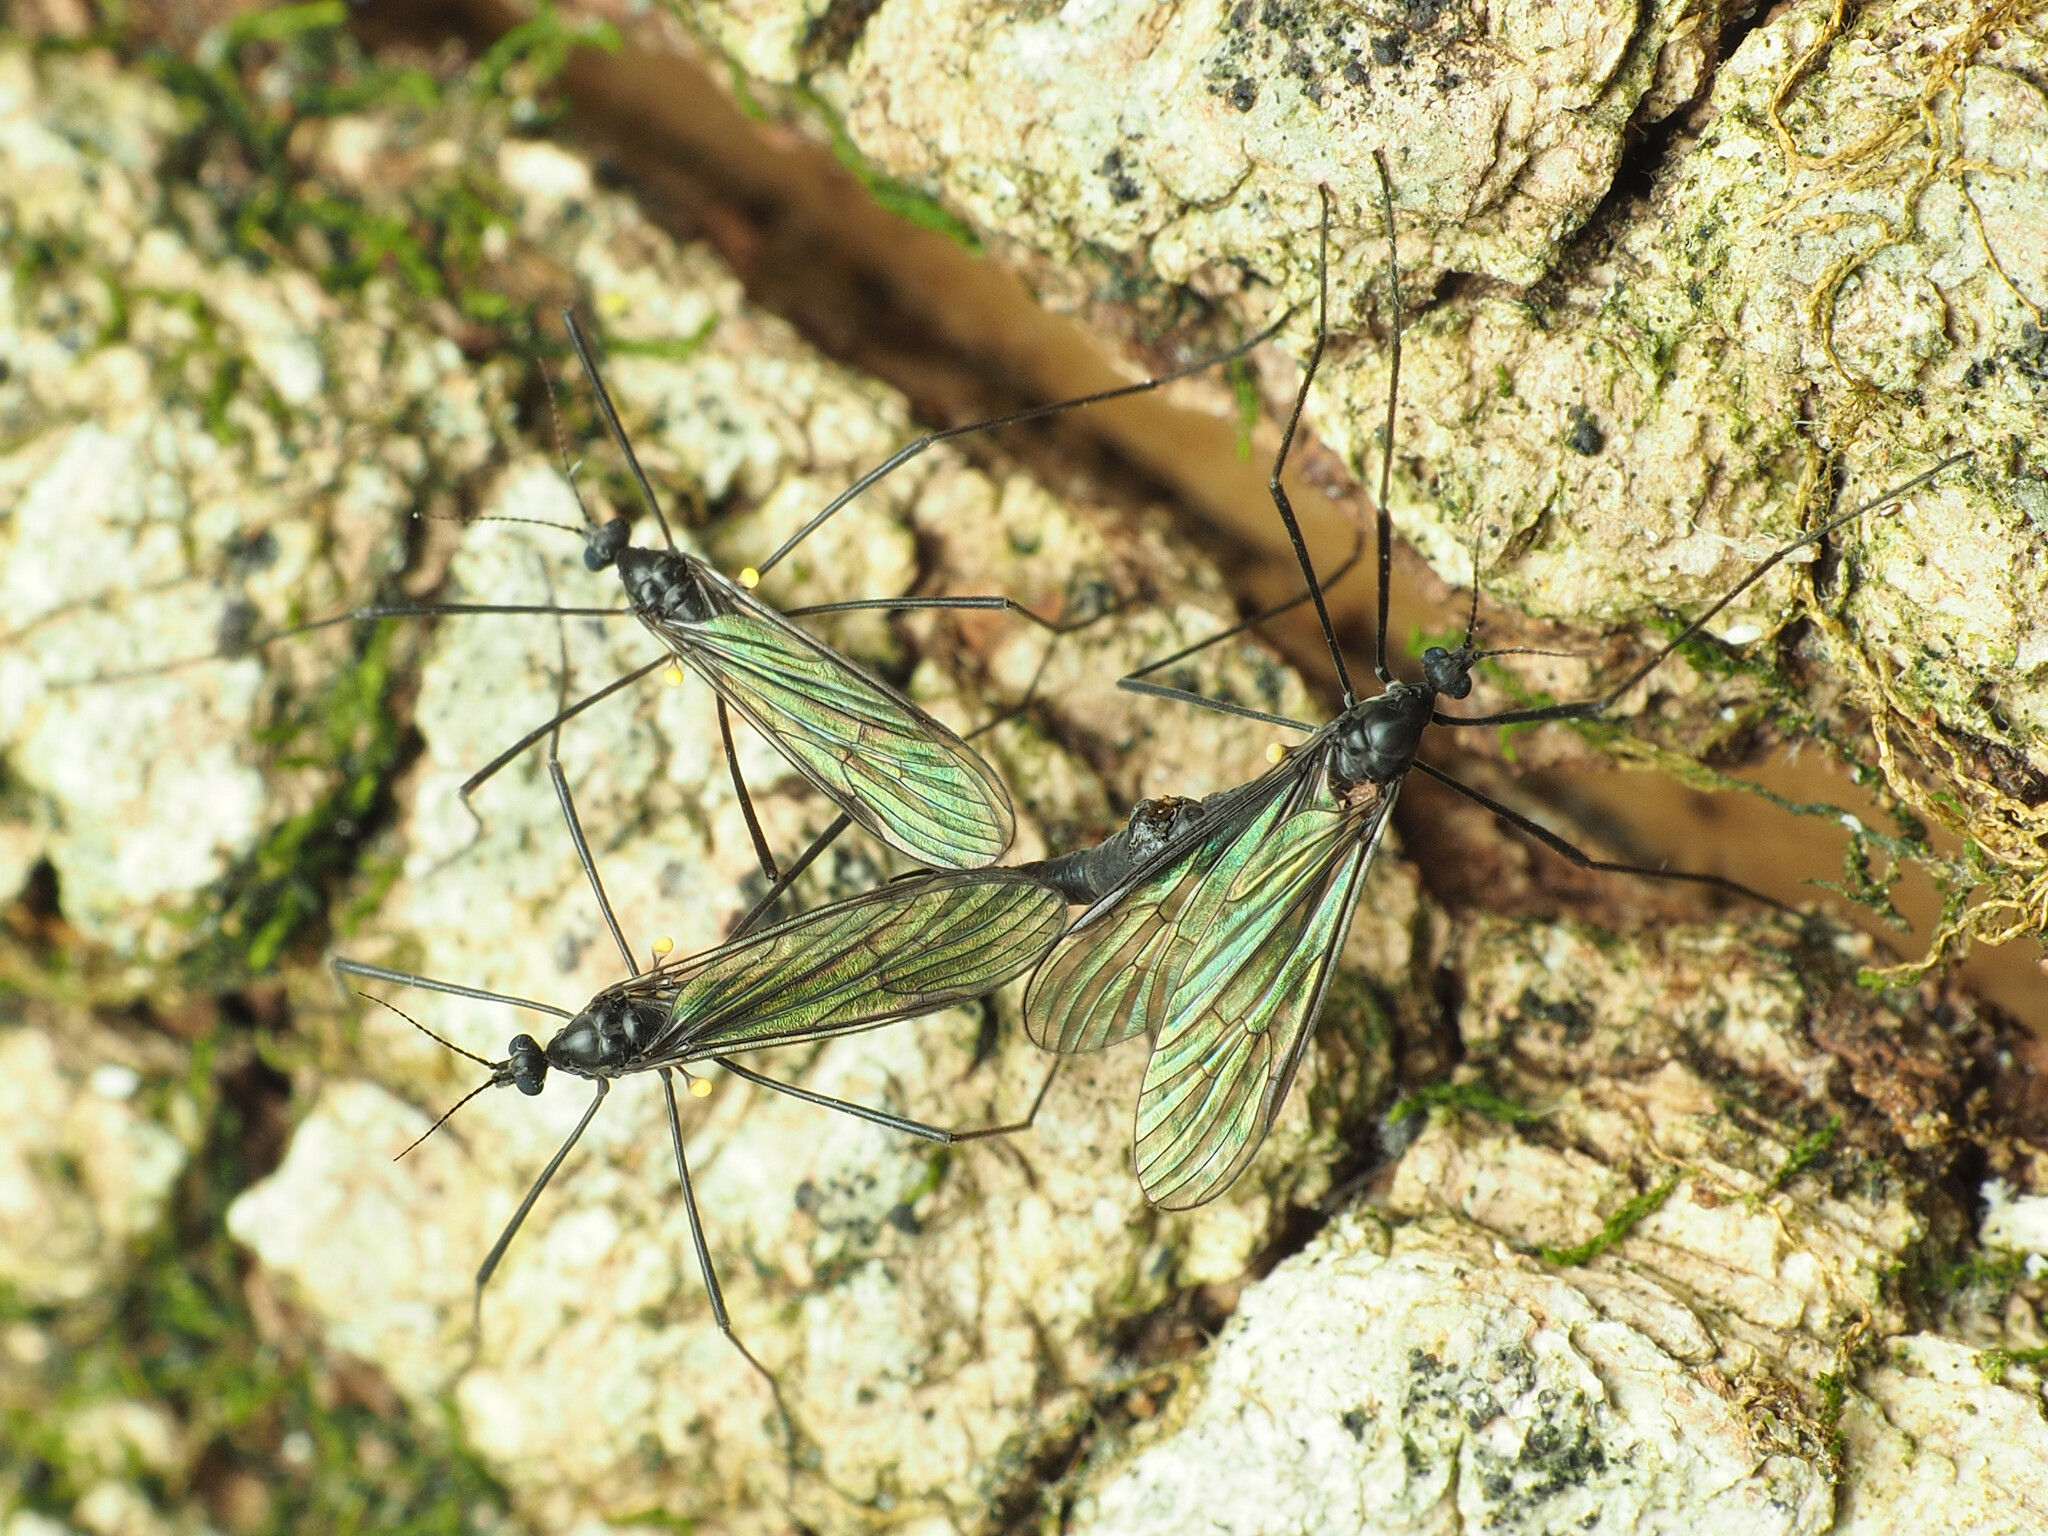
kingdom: Animalia
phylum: Arthropoda
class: Insecta
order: Diptera
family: Limoniidae
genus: Gnophomyia
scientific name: Gnophomyia tristissima
